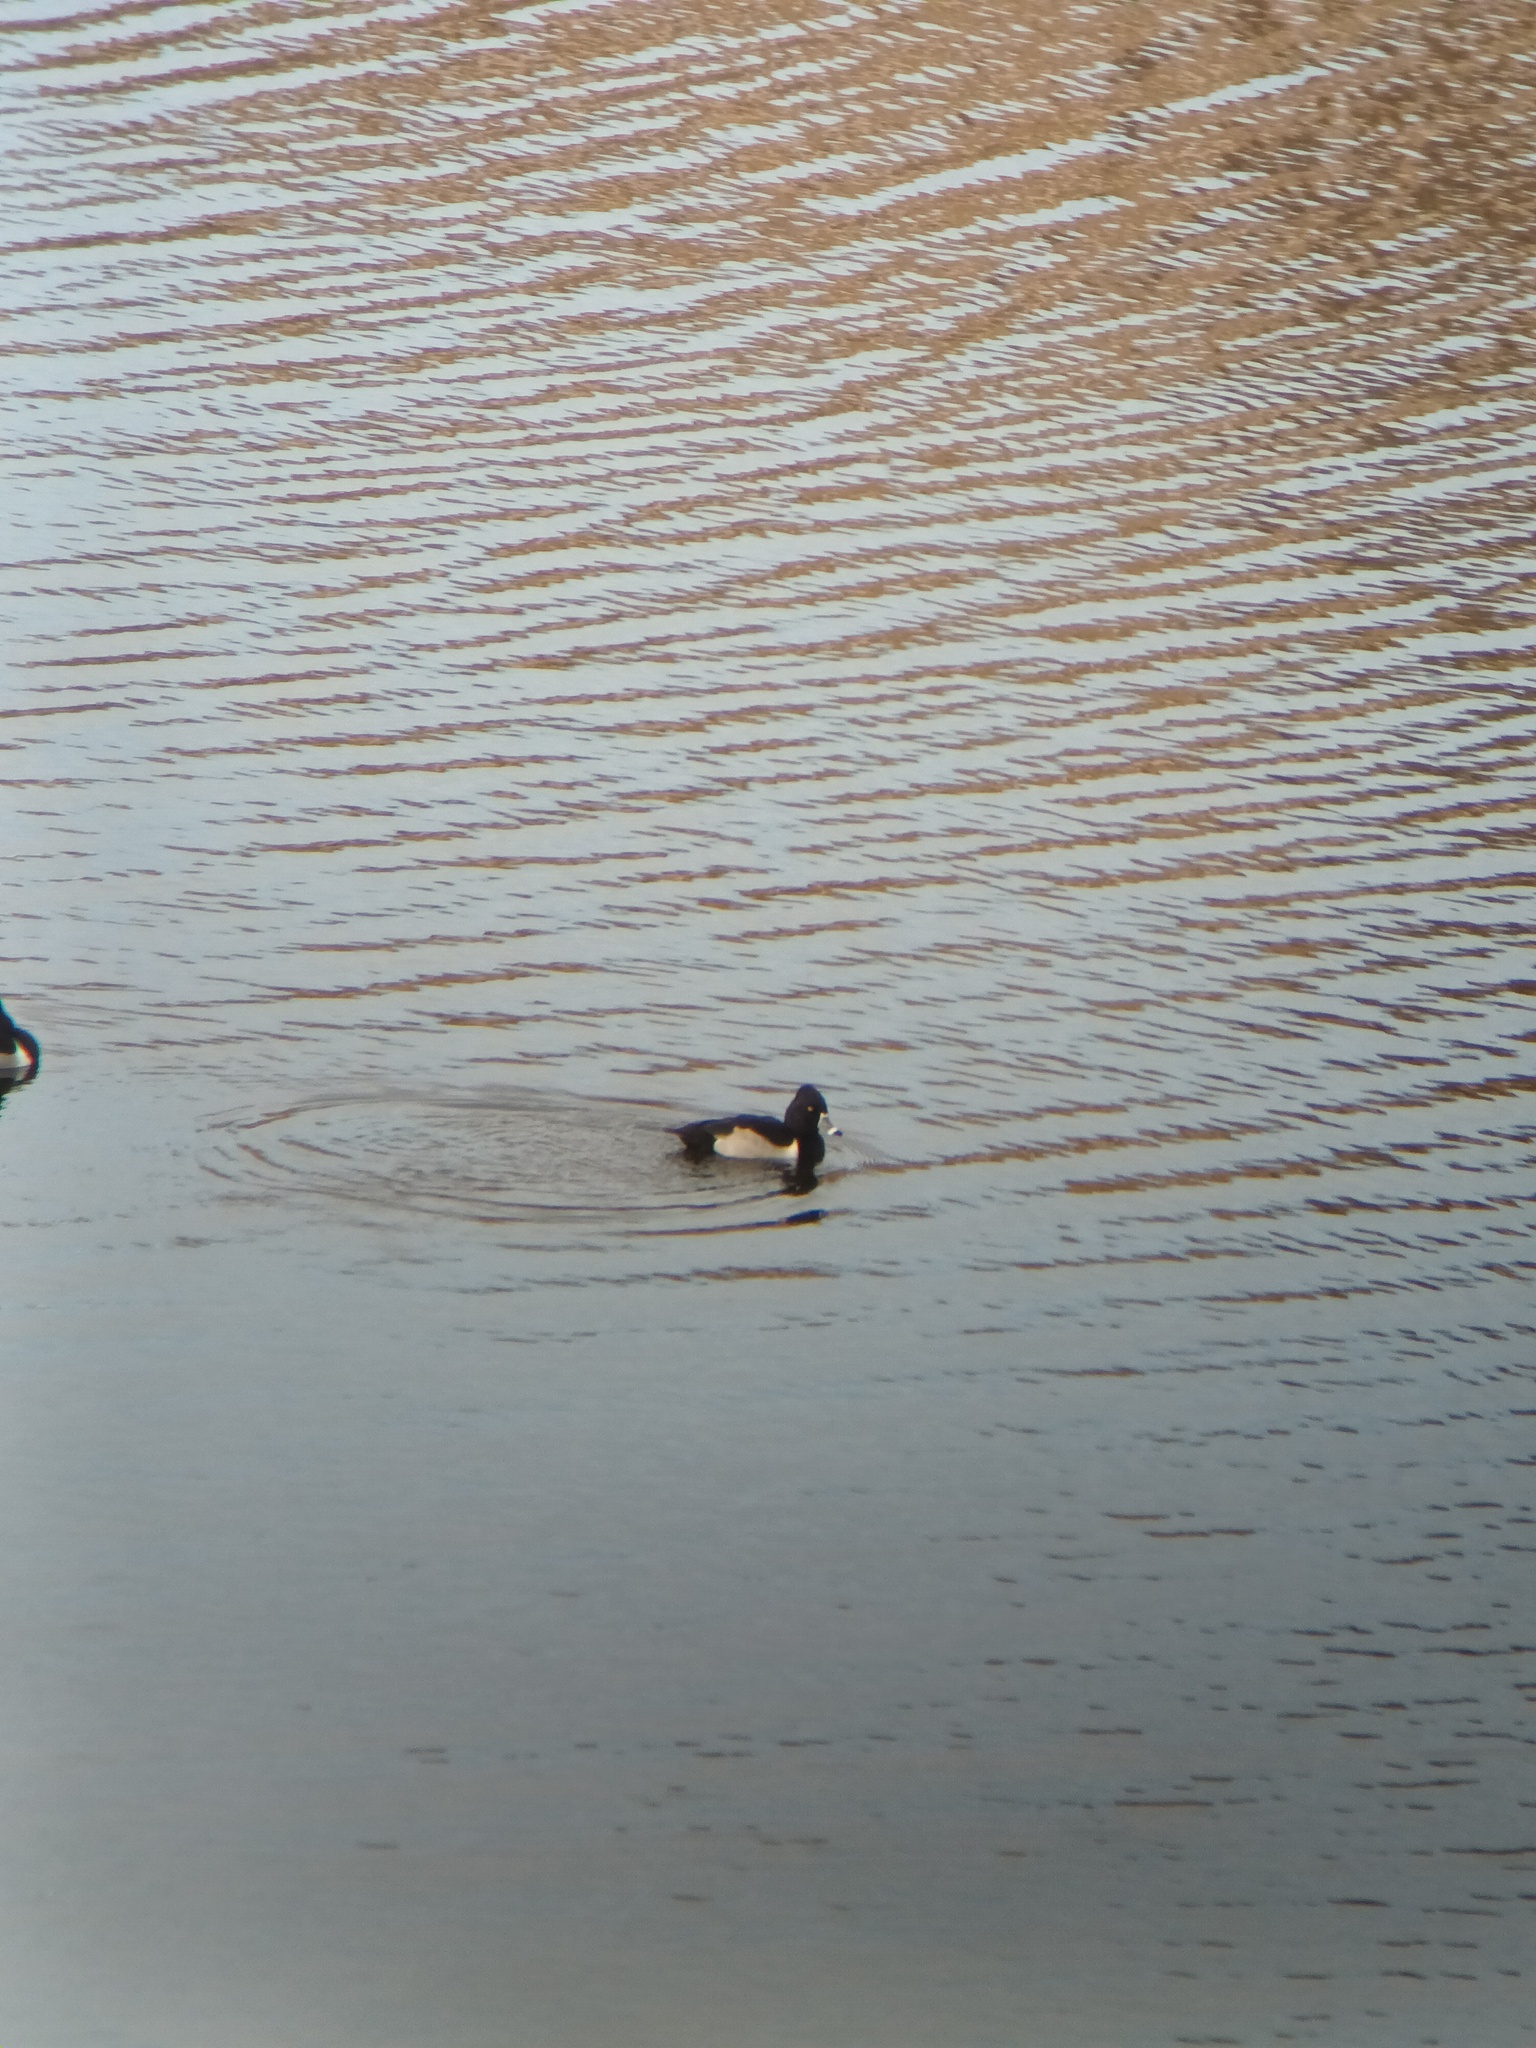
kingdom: Animalia
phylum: Chordata
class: Aves
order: Anseriformes
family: Anatidae
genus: Aythya
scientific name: Aythya collaris
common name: Ring-necked duck
